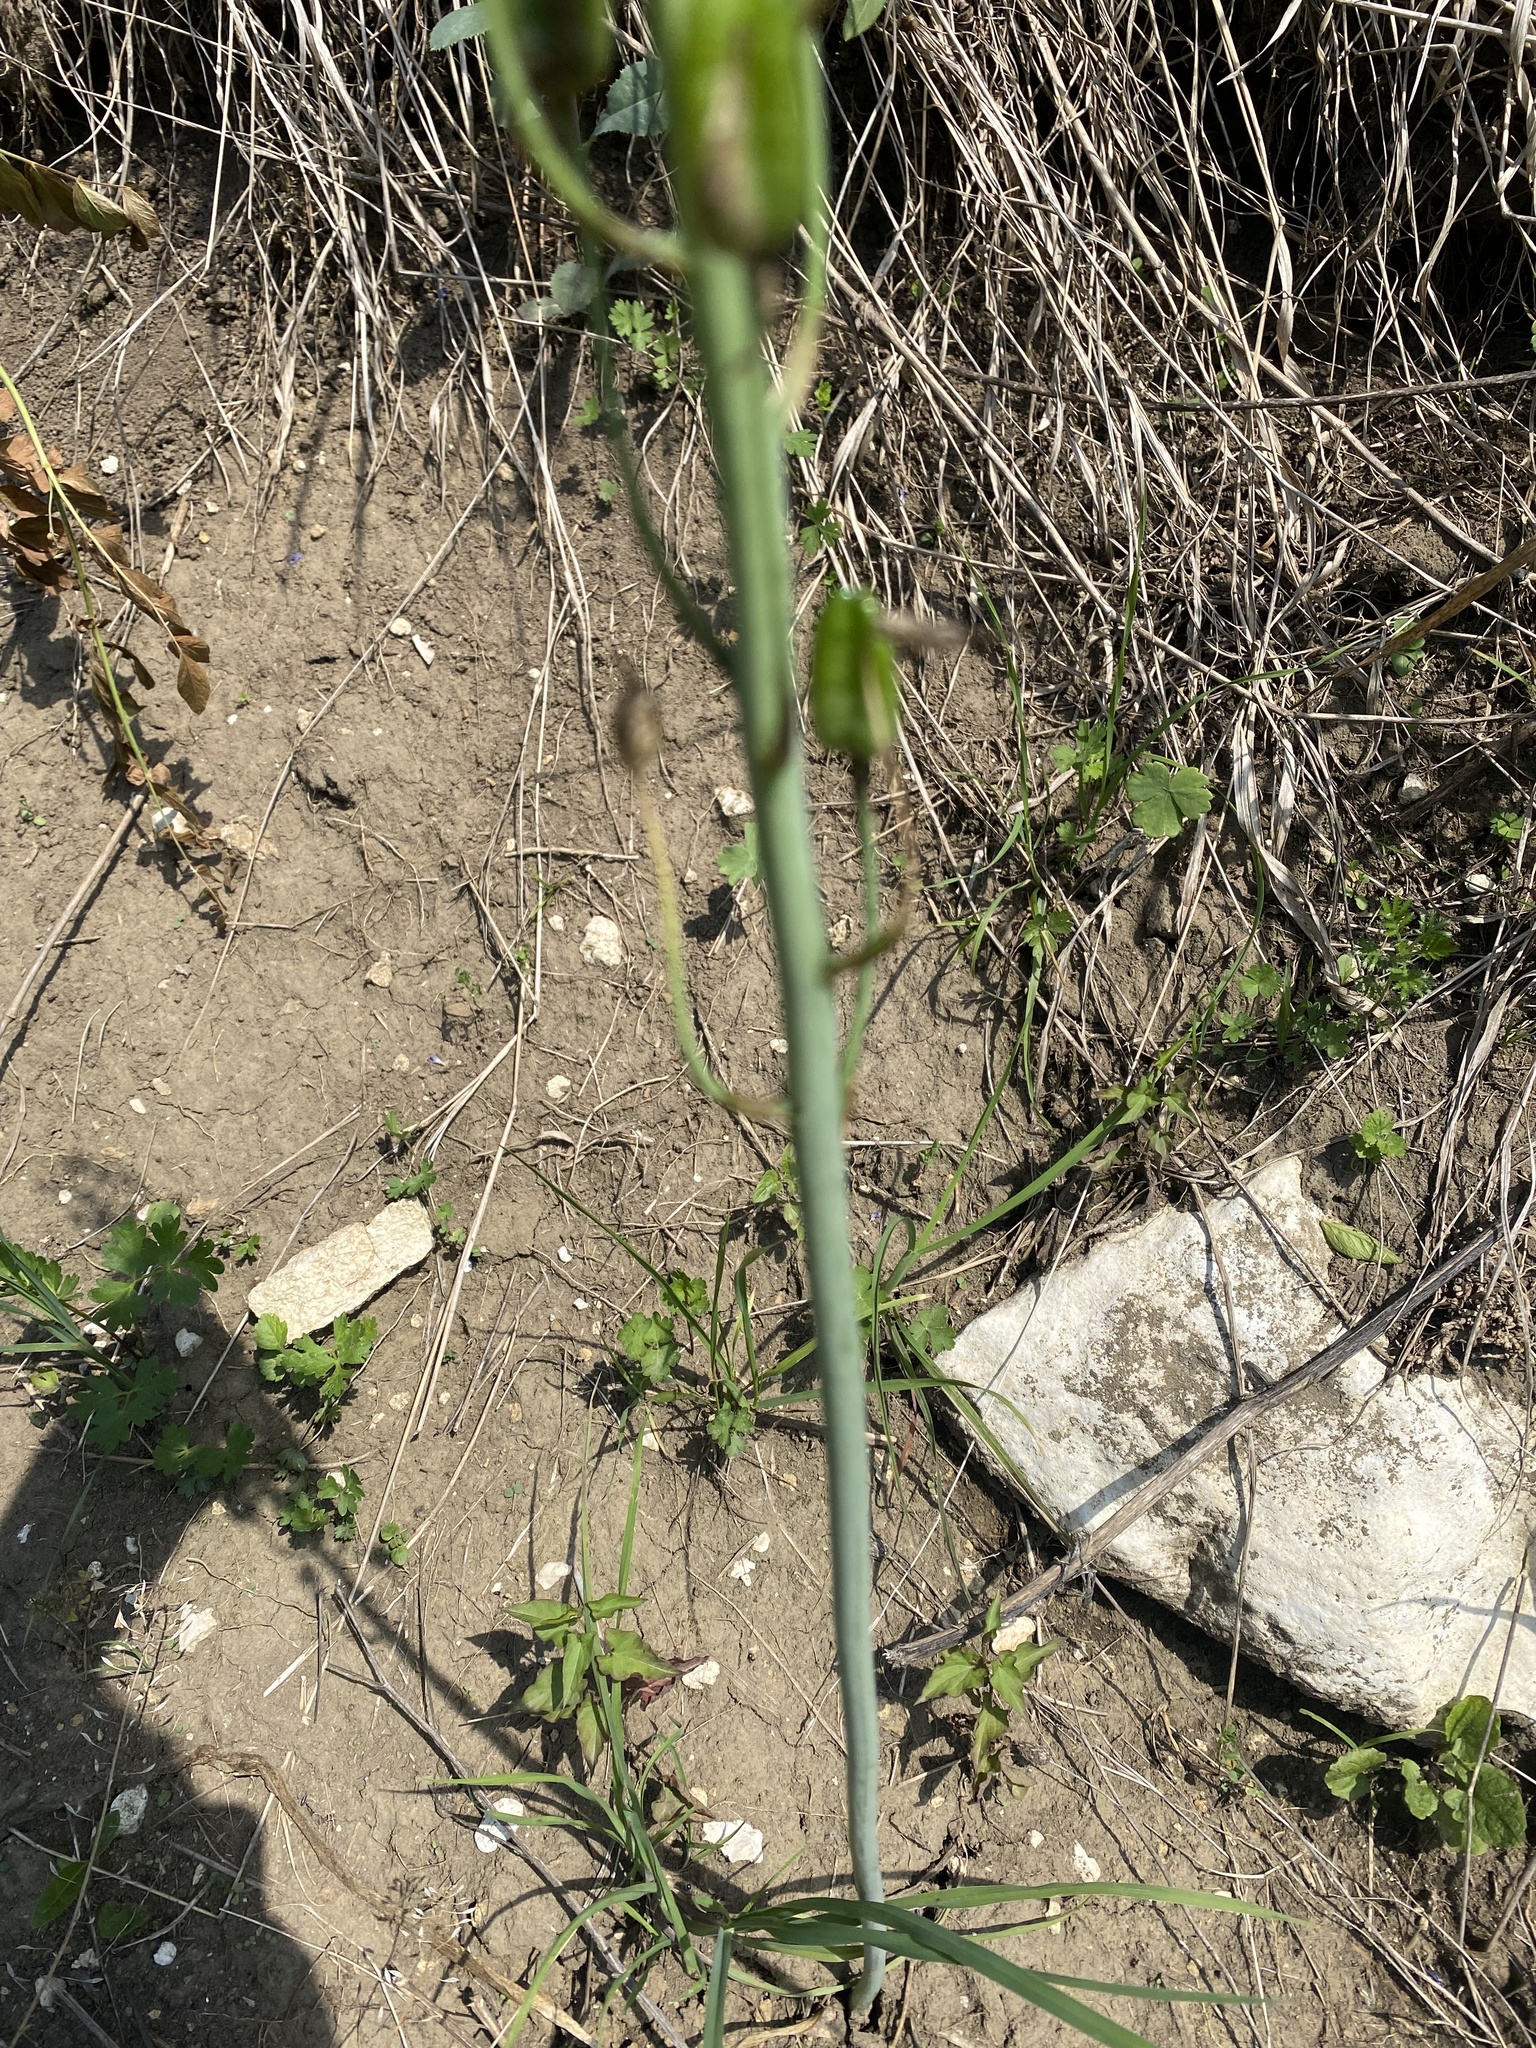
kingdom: Plantae
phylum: Tracheophyta
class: Liliopsida
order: Asparagales
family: Asparagaceae
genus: Ornithogalum
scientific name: Ornithogalum ponticum
